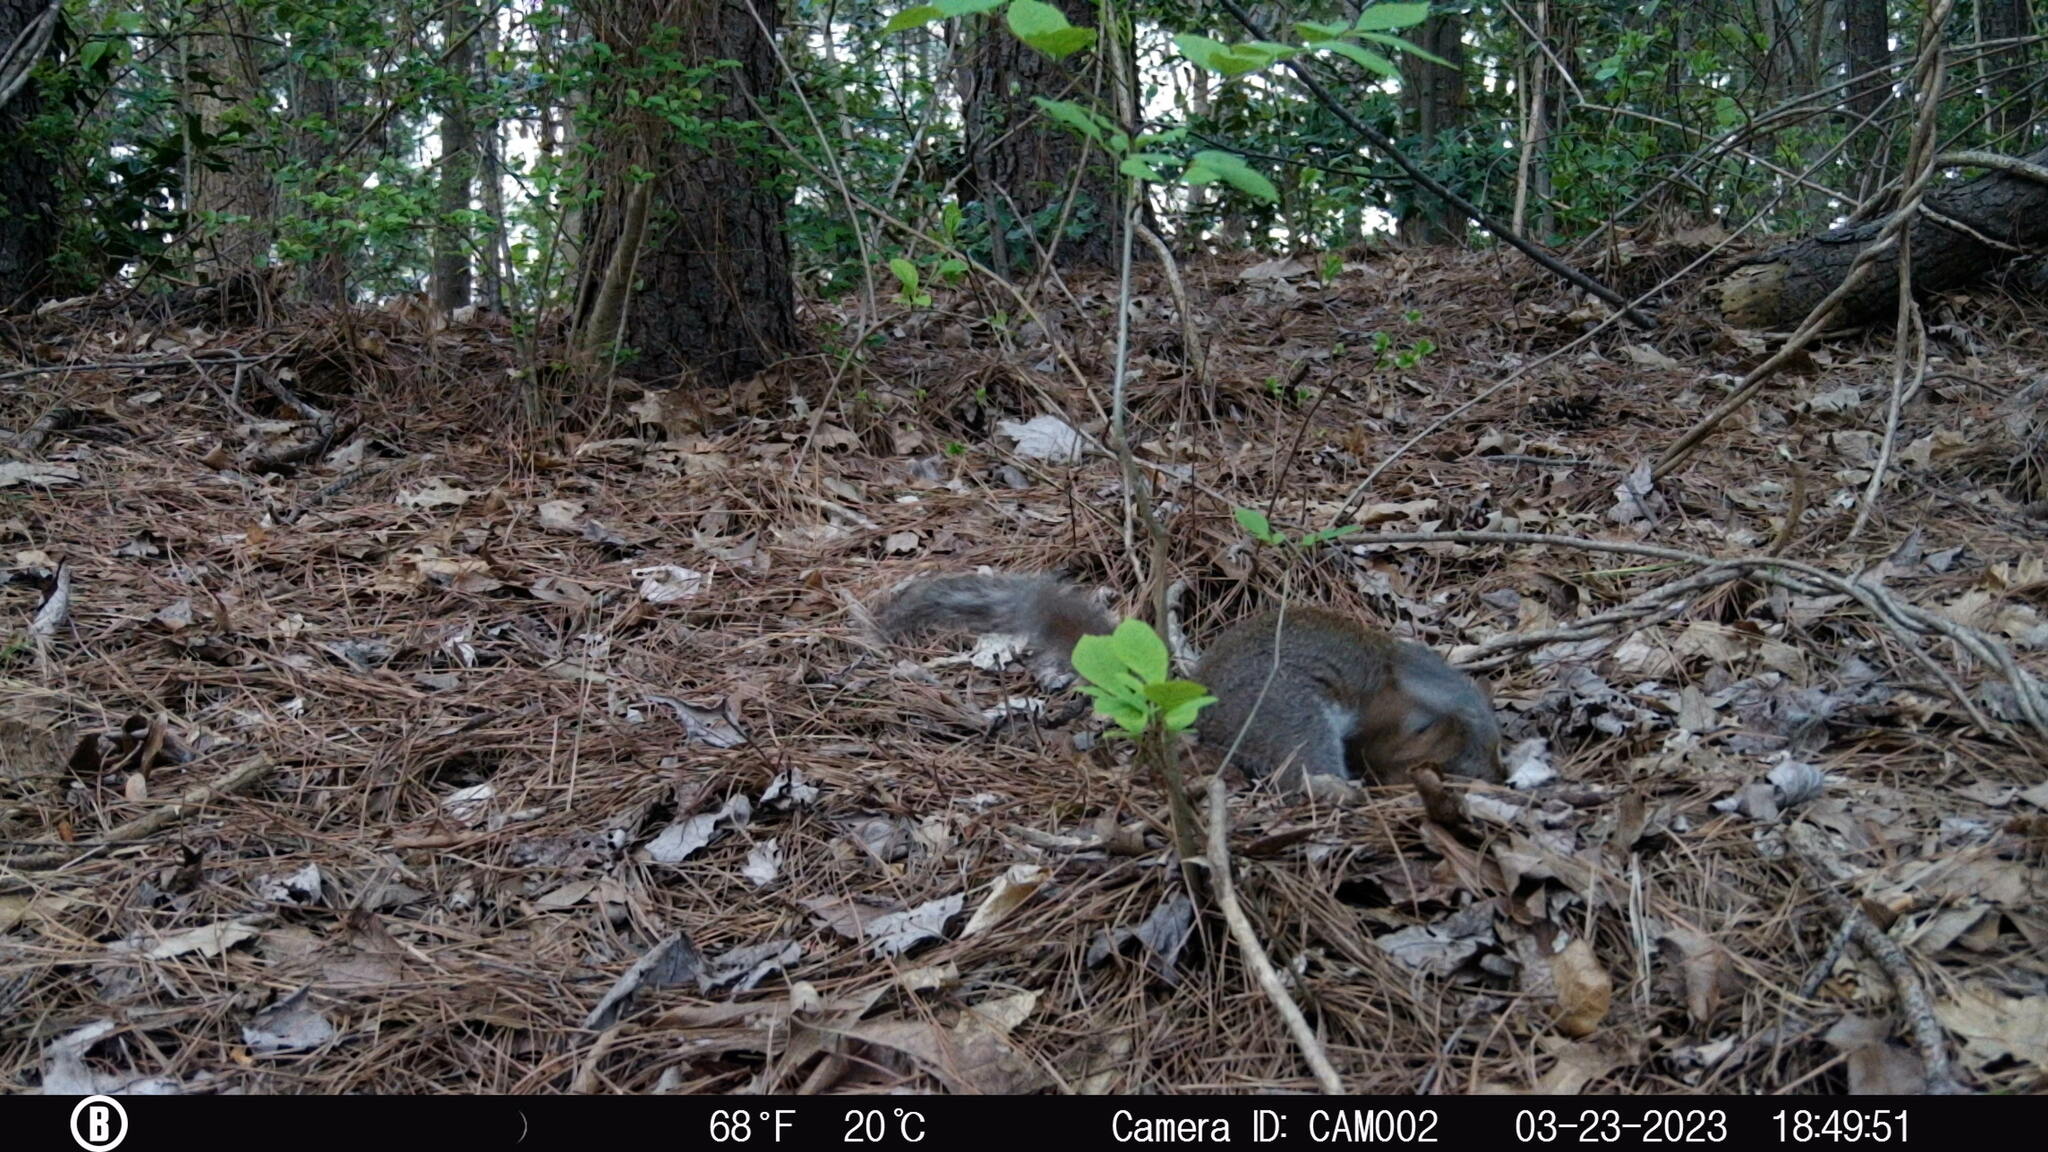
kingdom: Animalia
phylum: Chordata
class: Mammalia
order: Rodentia
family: Sciuridae
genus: Sciurus
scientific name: Sciurus carolinensis
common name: Eastern gray squirrel
